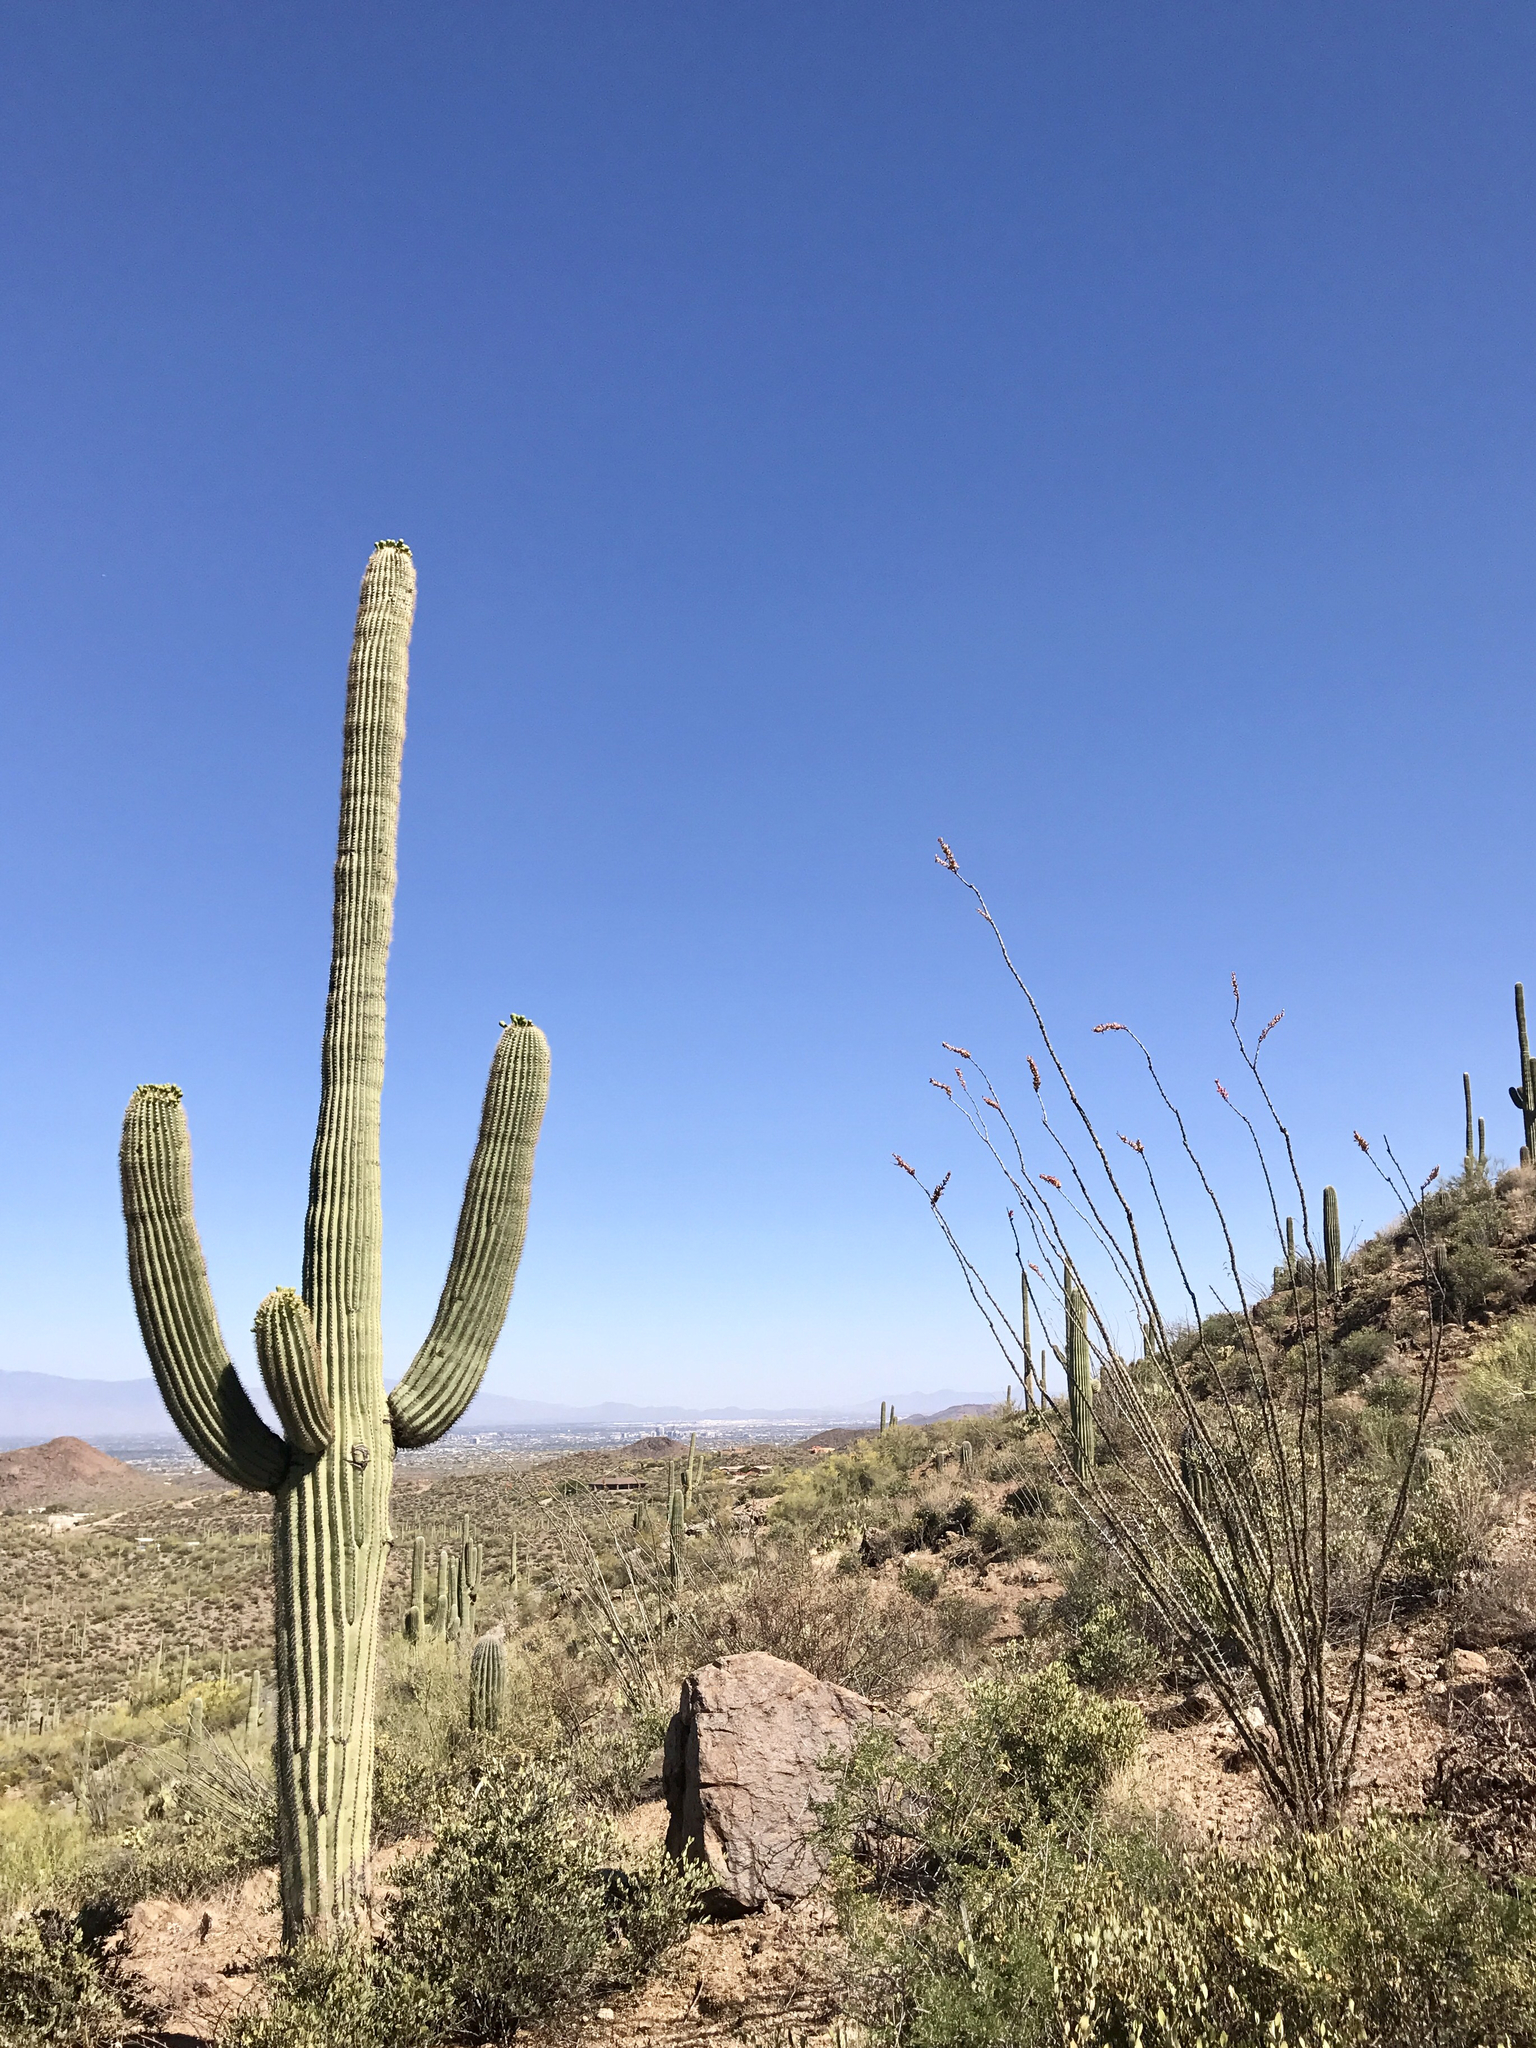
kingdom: Plantae
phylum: Tracheophyta
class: Magnoliopsida
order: Caryophyllales
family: Cactaceae
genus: Carnegiea
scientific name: Carnegiea gigantea
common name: Saguaro
